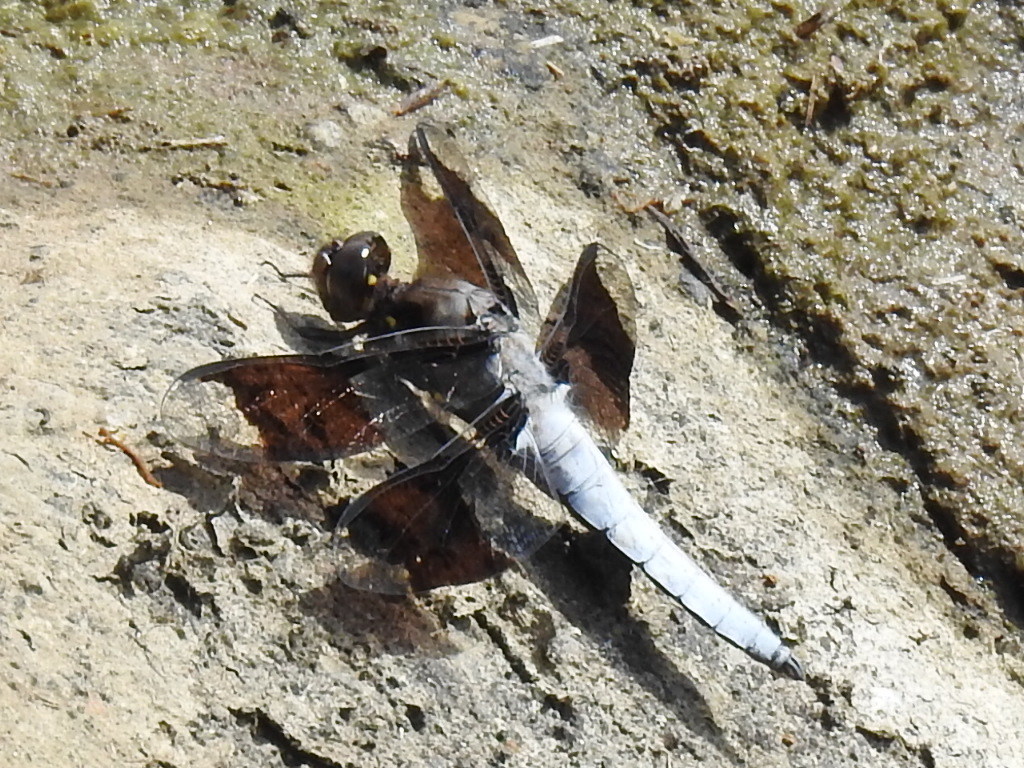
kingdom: Animalia
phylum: Arthropoda
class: Insecta
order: Odonata
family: Libellulidae
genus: Plathemis
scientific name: Plathemis lydia
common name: Common whitetail
